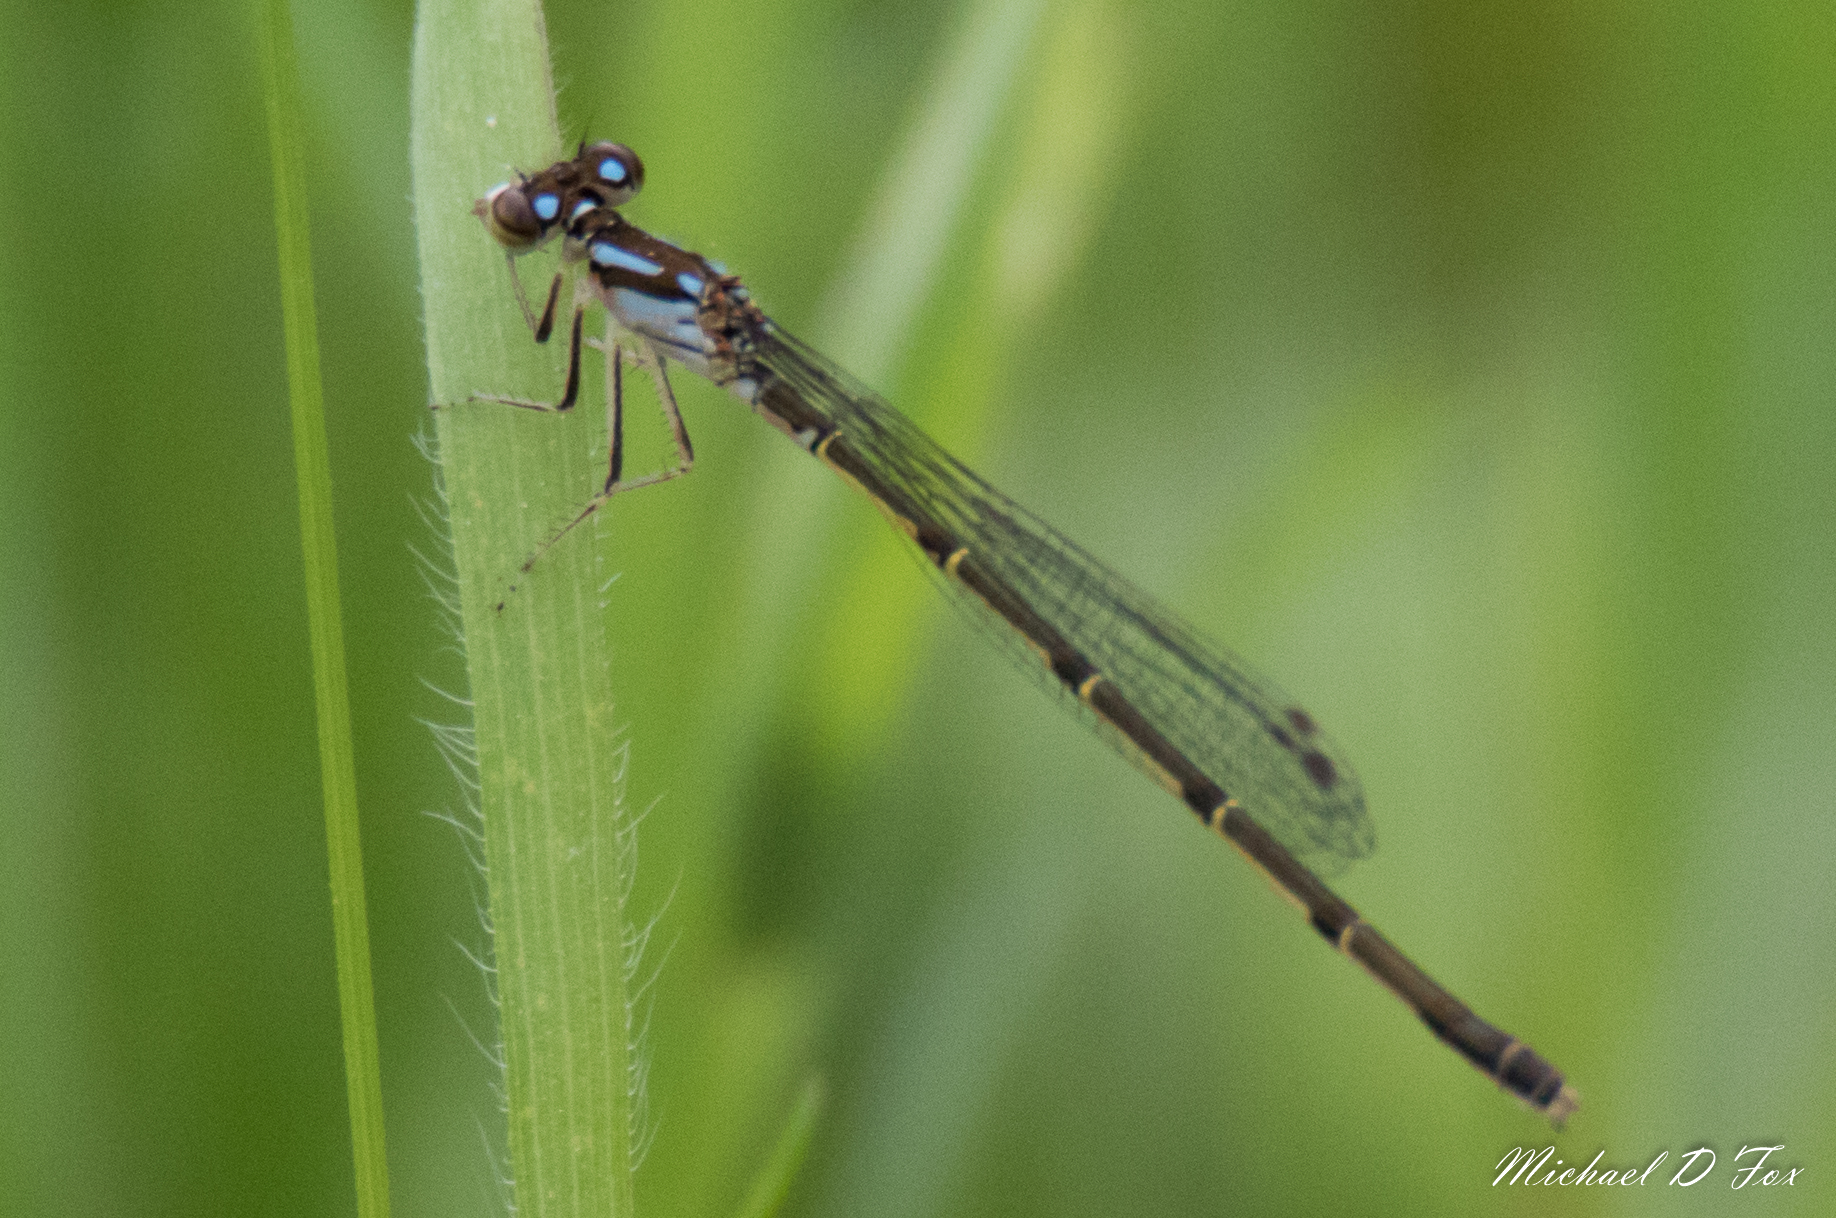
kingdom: Animalia
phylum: Arthropoda
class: Insecta
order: Odonata
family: Coenagrionidae
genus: Ischnura
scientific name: Ischnura posita
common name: Fragile forktail
